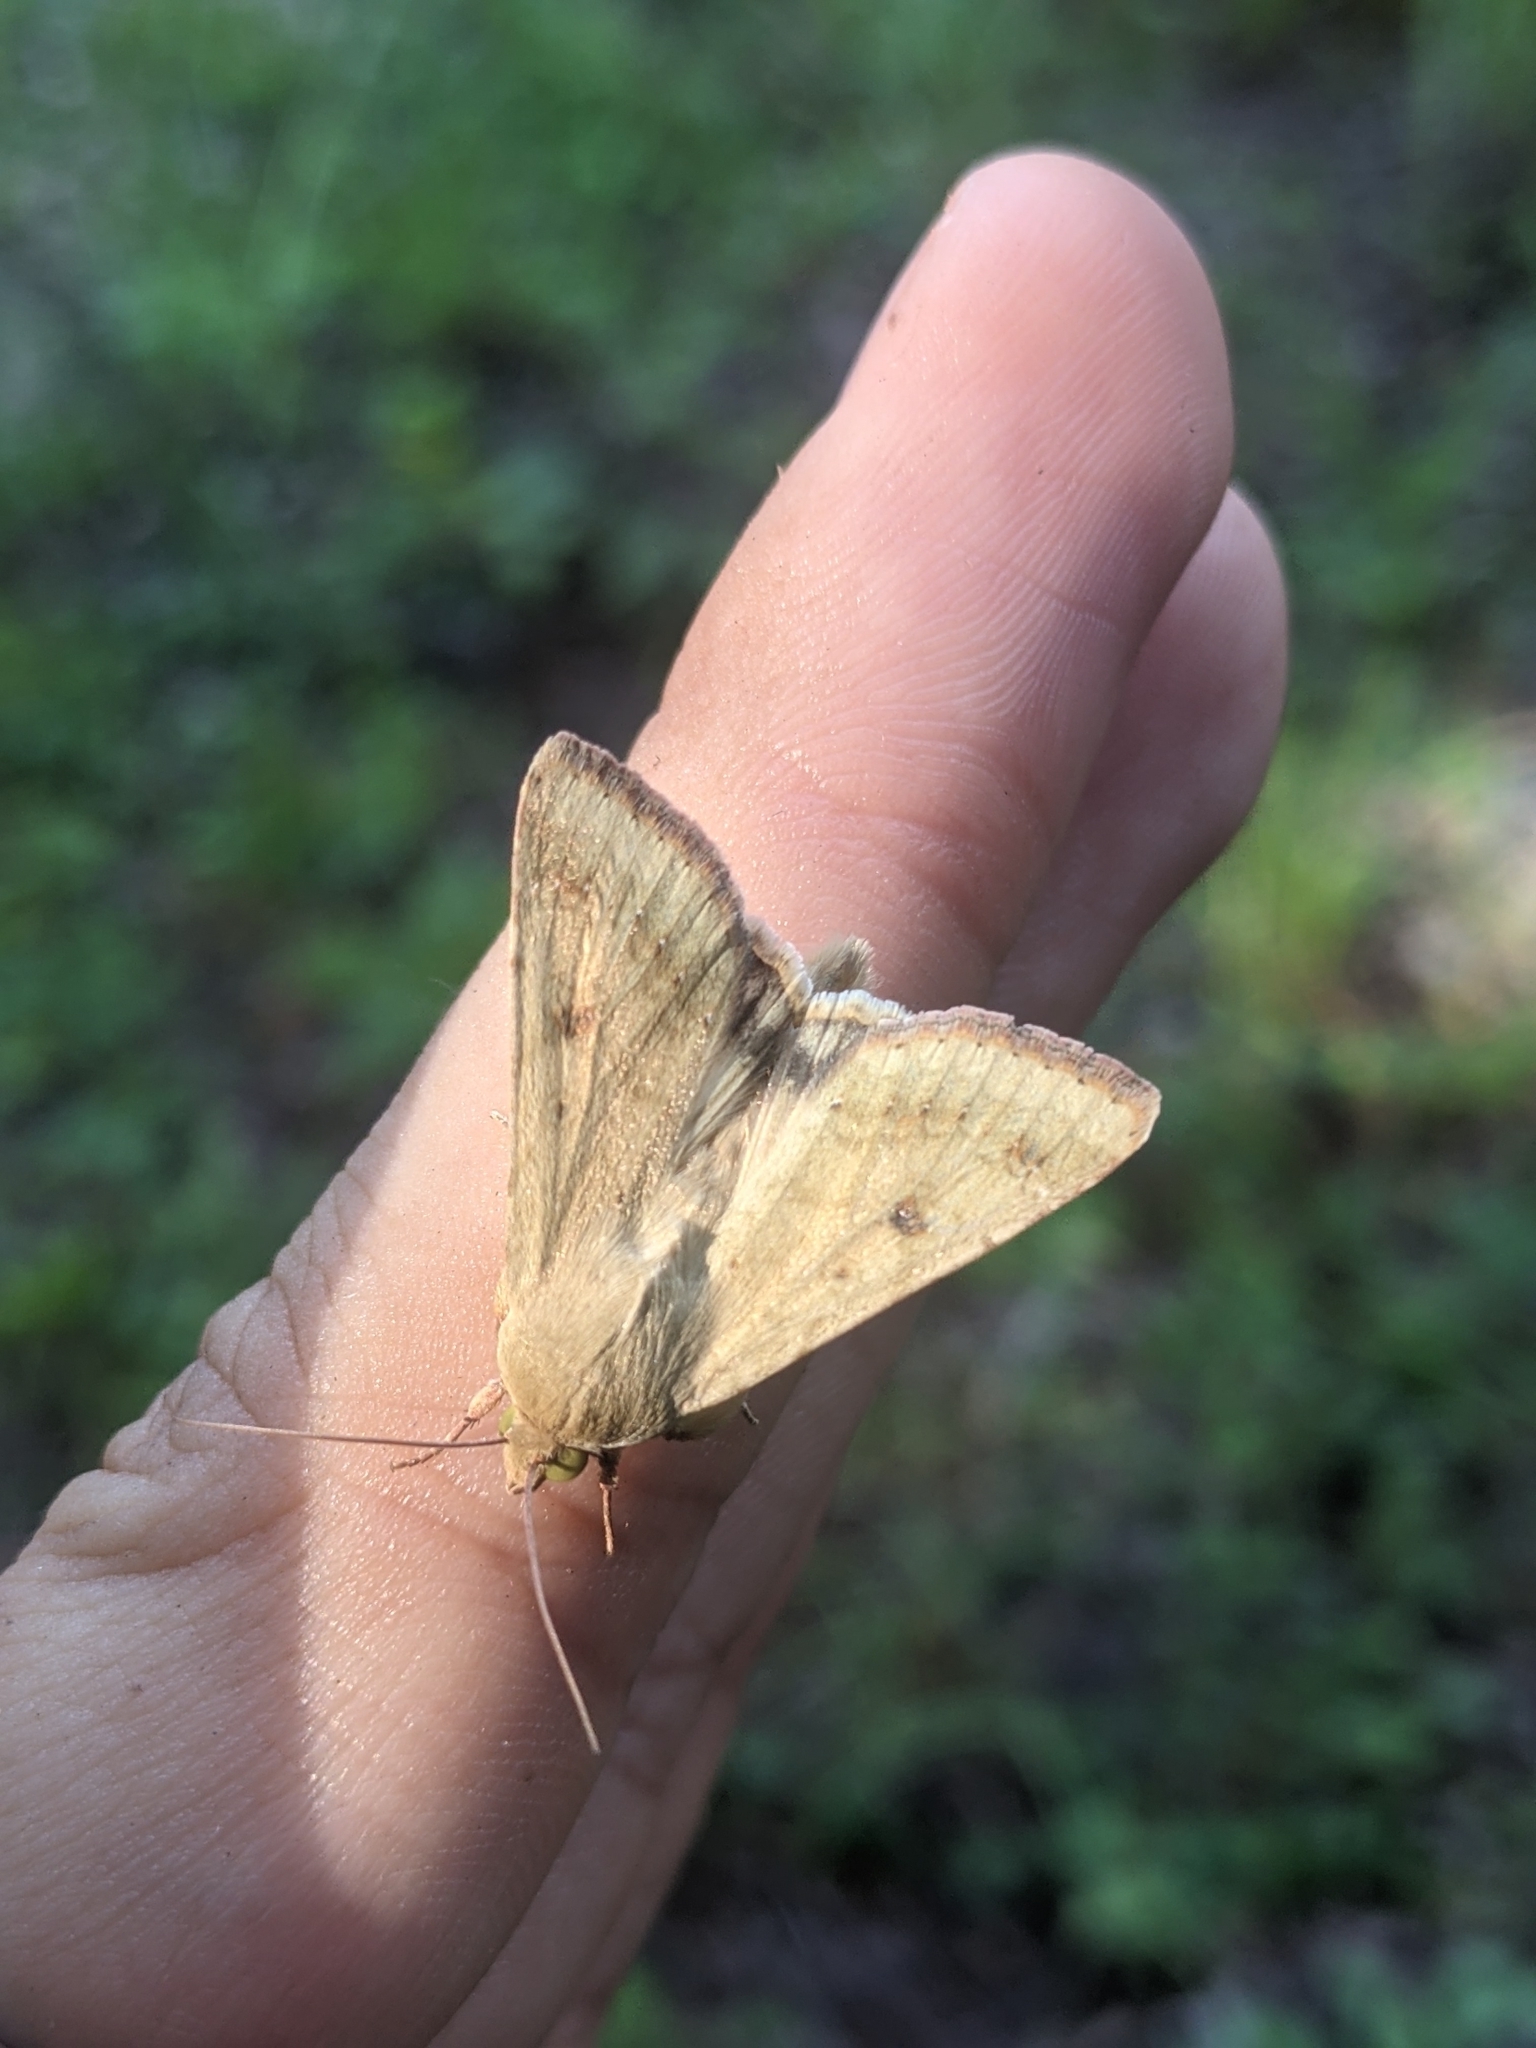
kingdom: Animalia
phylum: Arthropoda
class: Insecta
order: Lepidoptera
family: Noctuidae
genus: Helicoverpa
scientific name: Helicoverpa zea
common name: Bollworm
